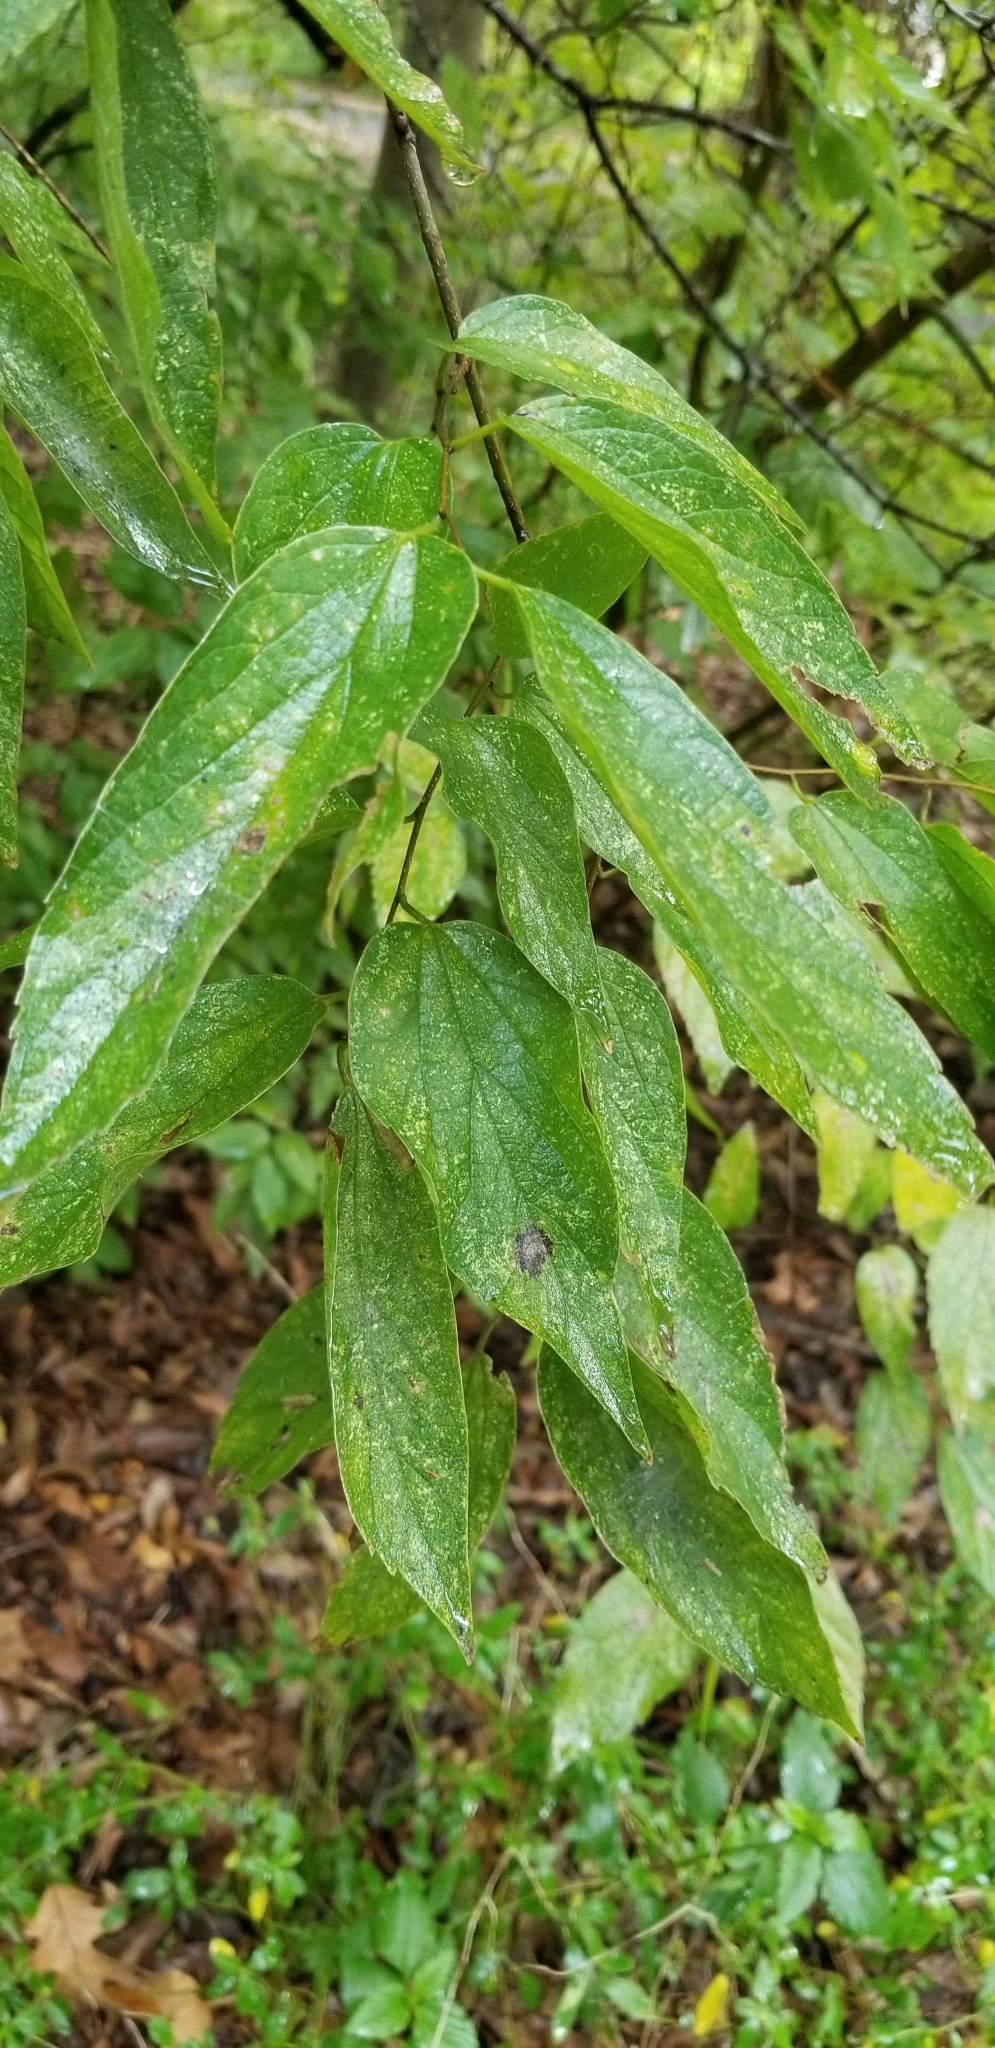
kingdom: Plantae
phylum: Tracheophyta
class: Magnoliopsida
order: Rosales
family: Cannabaceae
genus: Celtis
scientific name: Celtis laevigata
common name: Sugarberry
